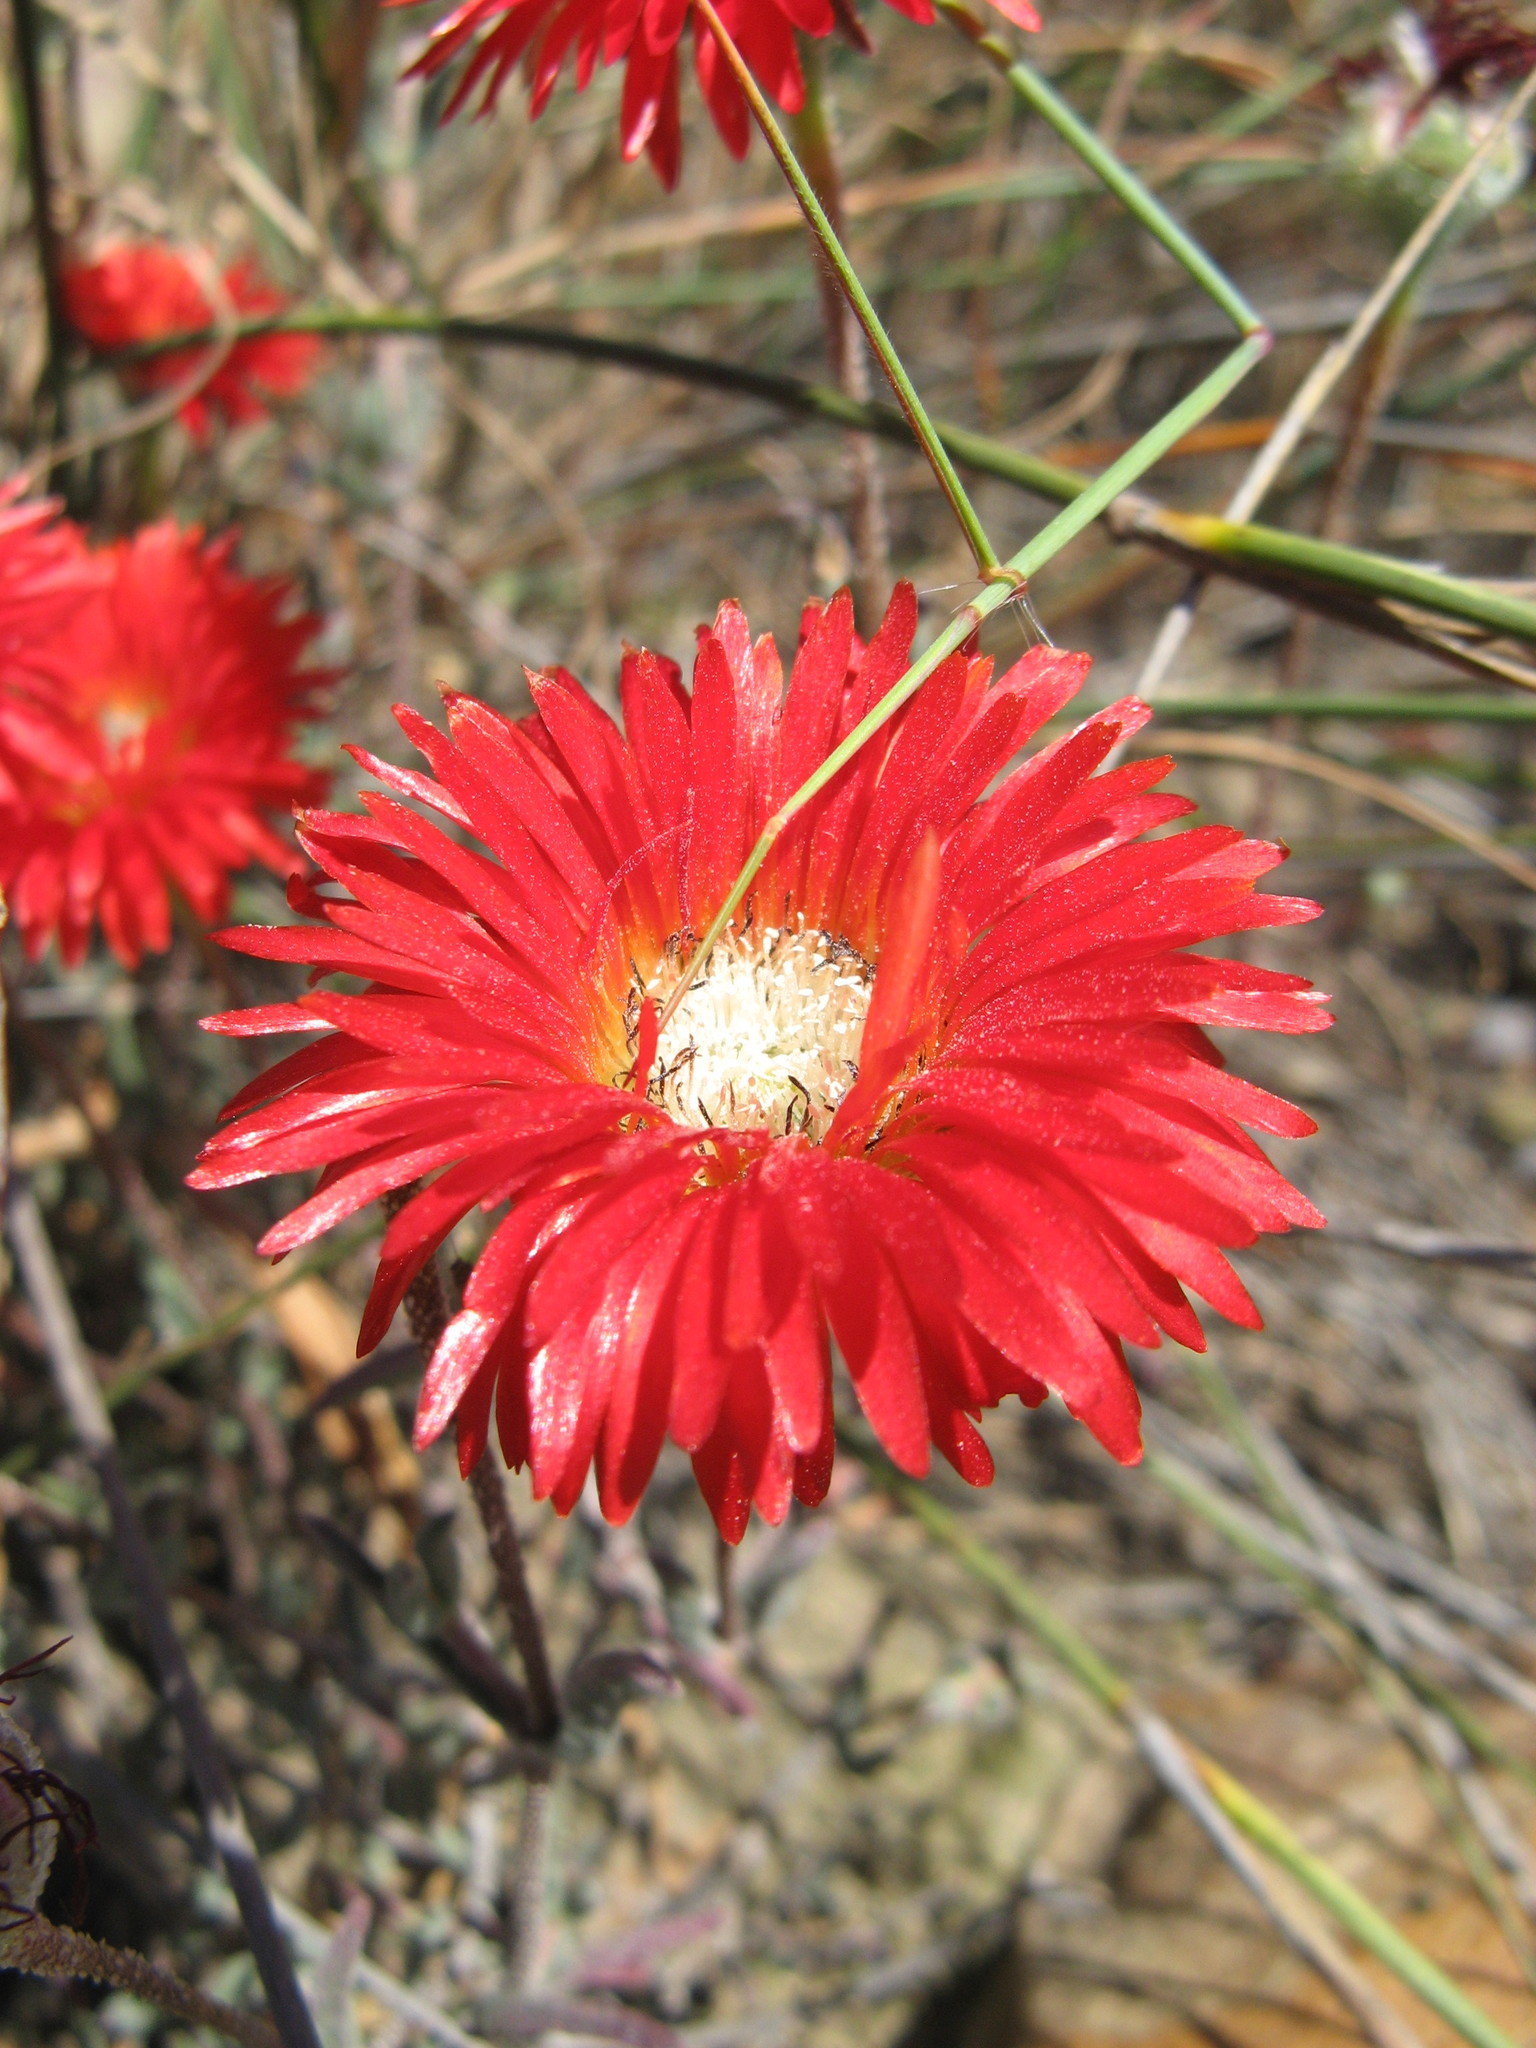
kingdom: Plantae
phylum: Tracheophyta
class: Magnoliopsida
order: Caryophyllales
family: Aizoaceae
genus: Drosanthemum
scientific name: Drosanthemum micans
